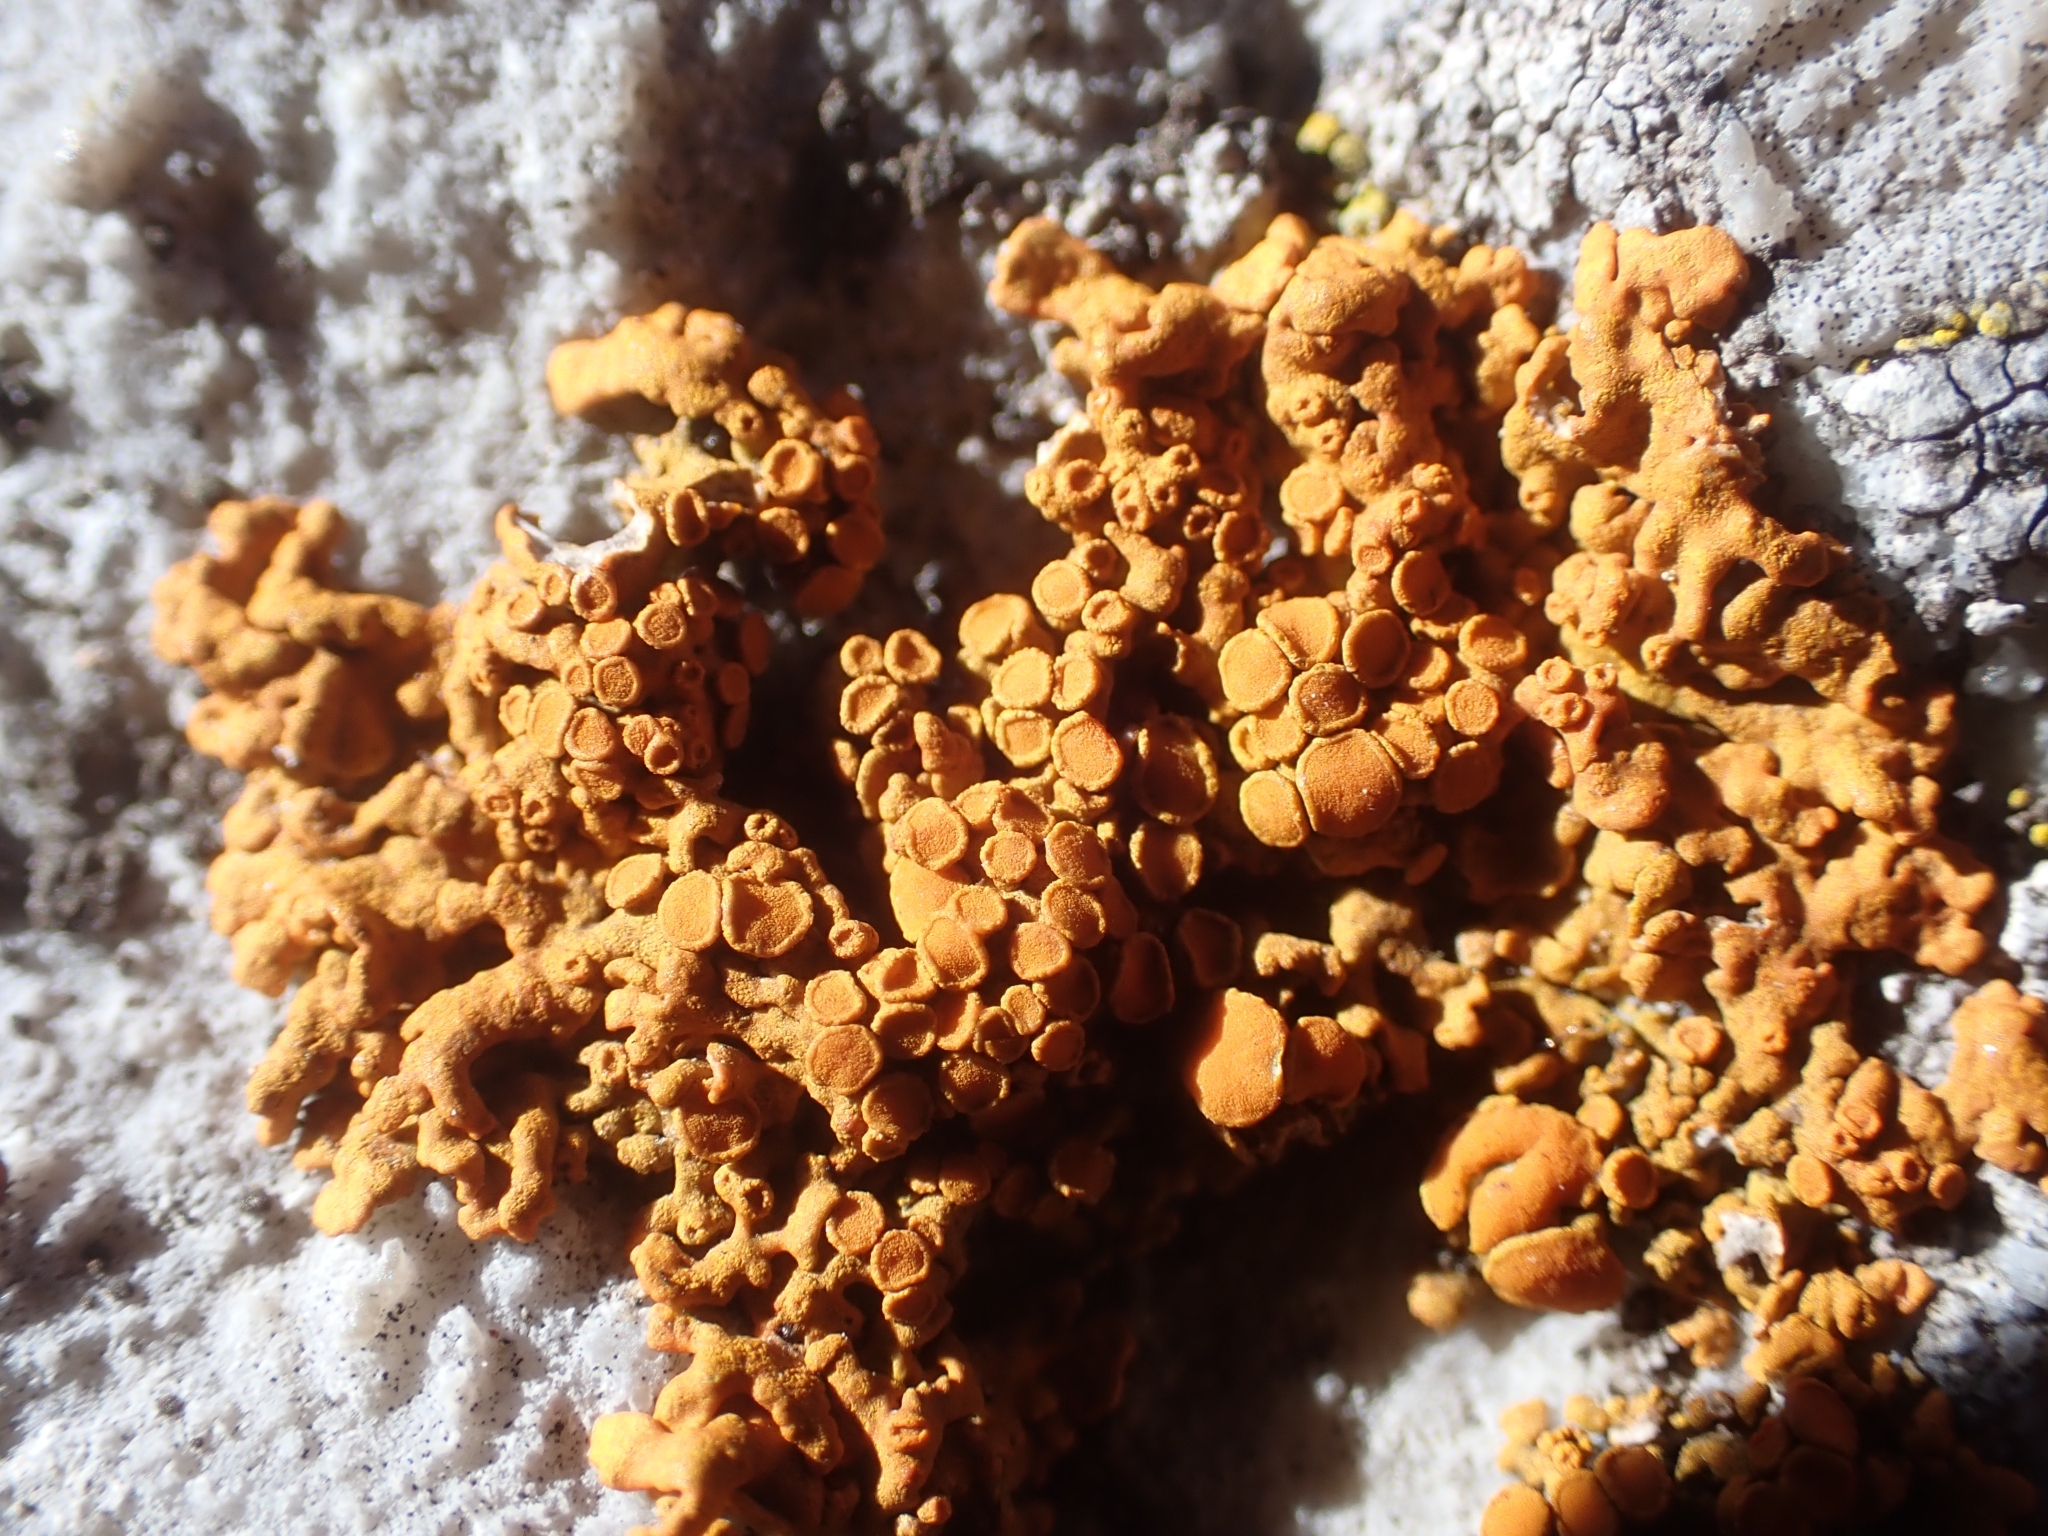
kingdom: Fungi
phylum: Ascomycota
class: Lecanoromycetes
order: Teloschistales
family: Teloschistaceae
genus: Xanthoria
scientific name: Xanthoria elegans
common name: Elegant sunburst lichen
